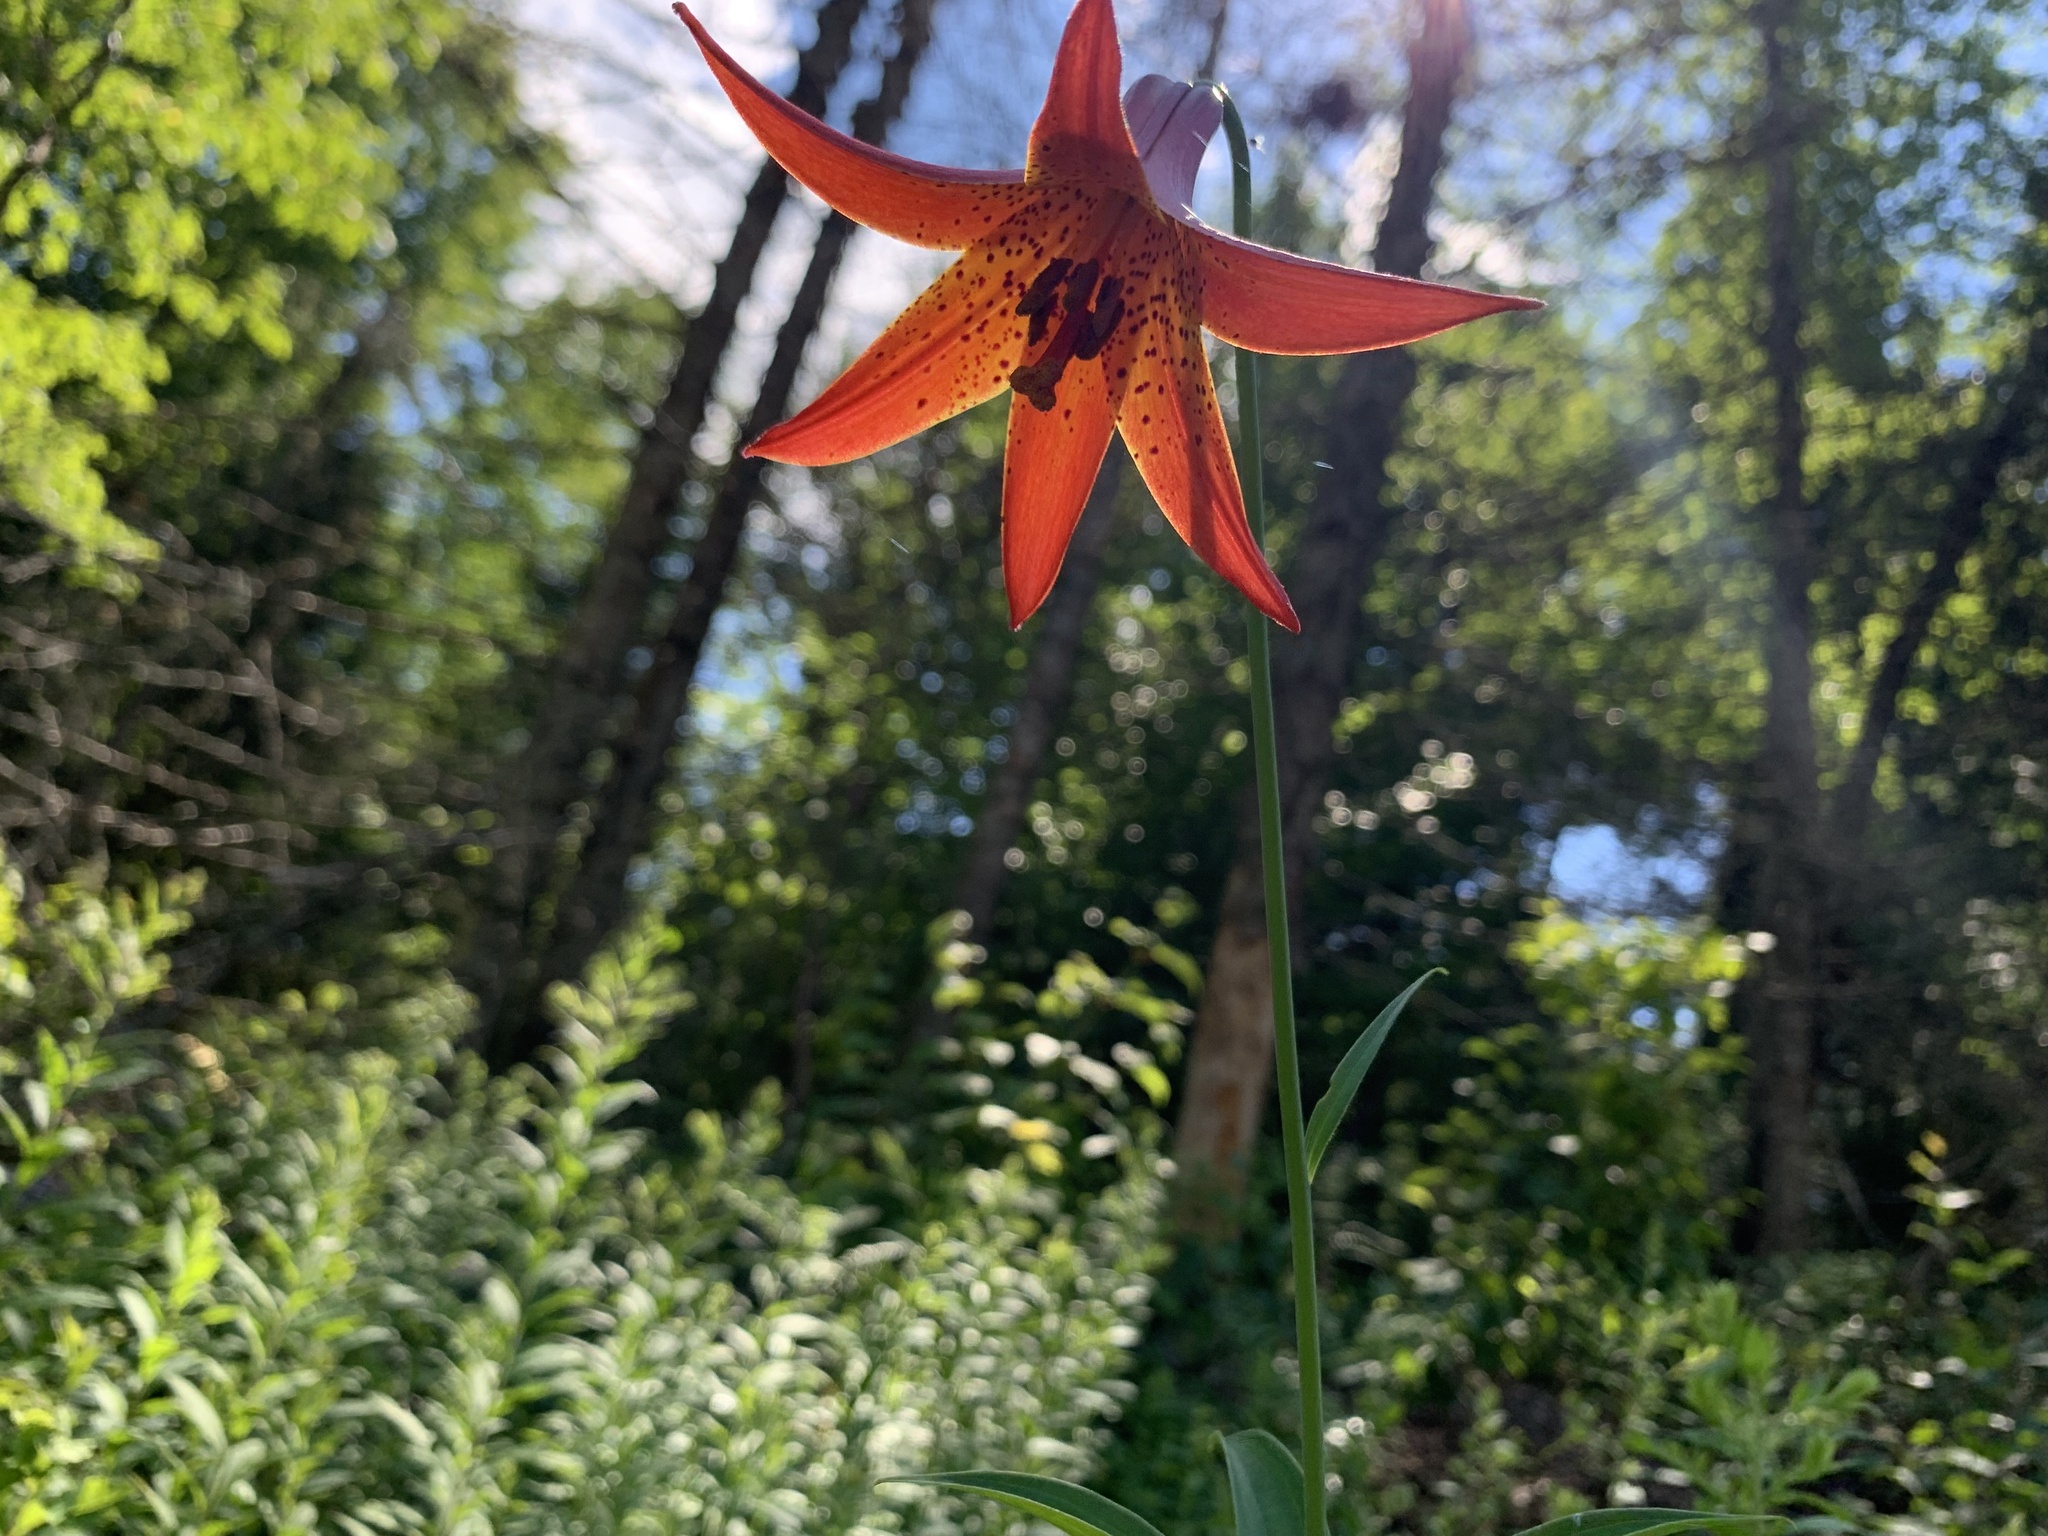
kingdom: Plantae
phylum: Tracheophyta
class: Liliopsida
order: Liliales
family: Liliaceae
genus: Lilium
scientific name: Lilium canadense
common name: Canada lily
